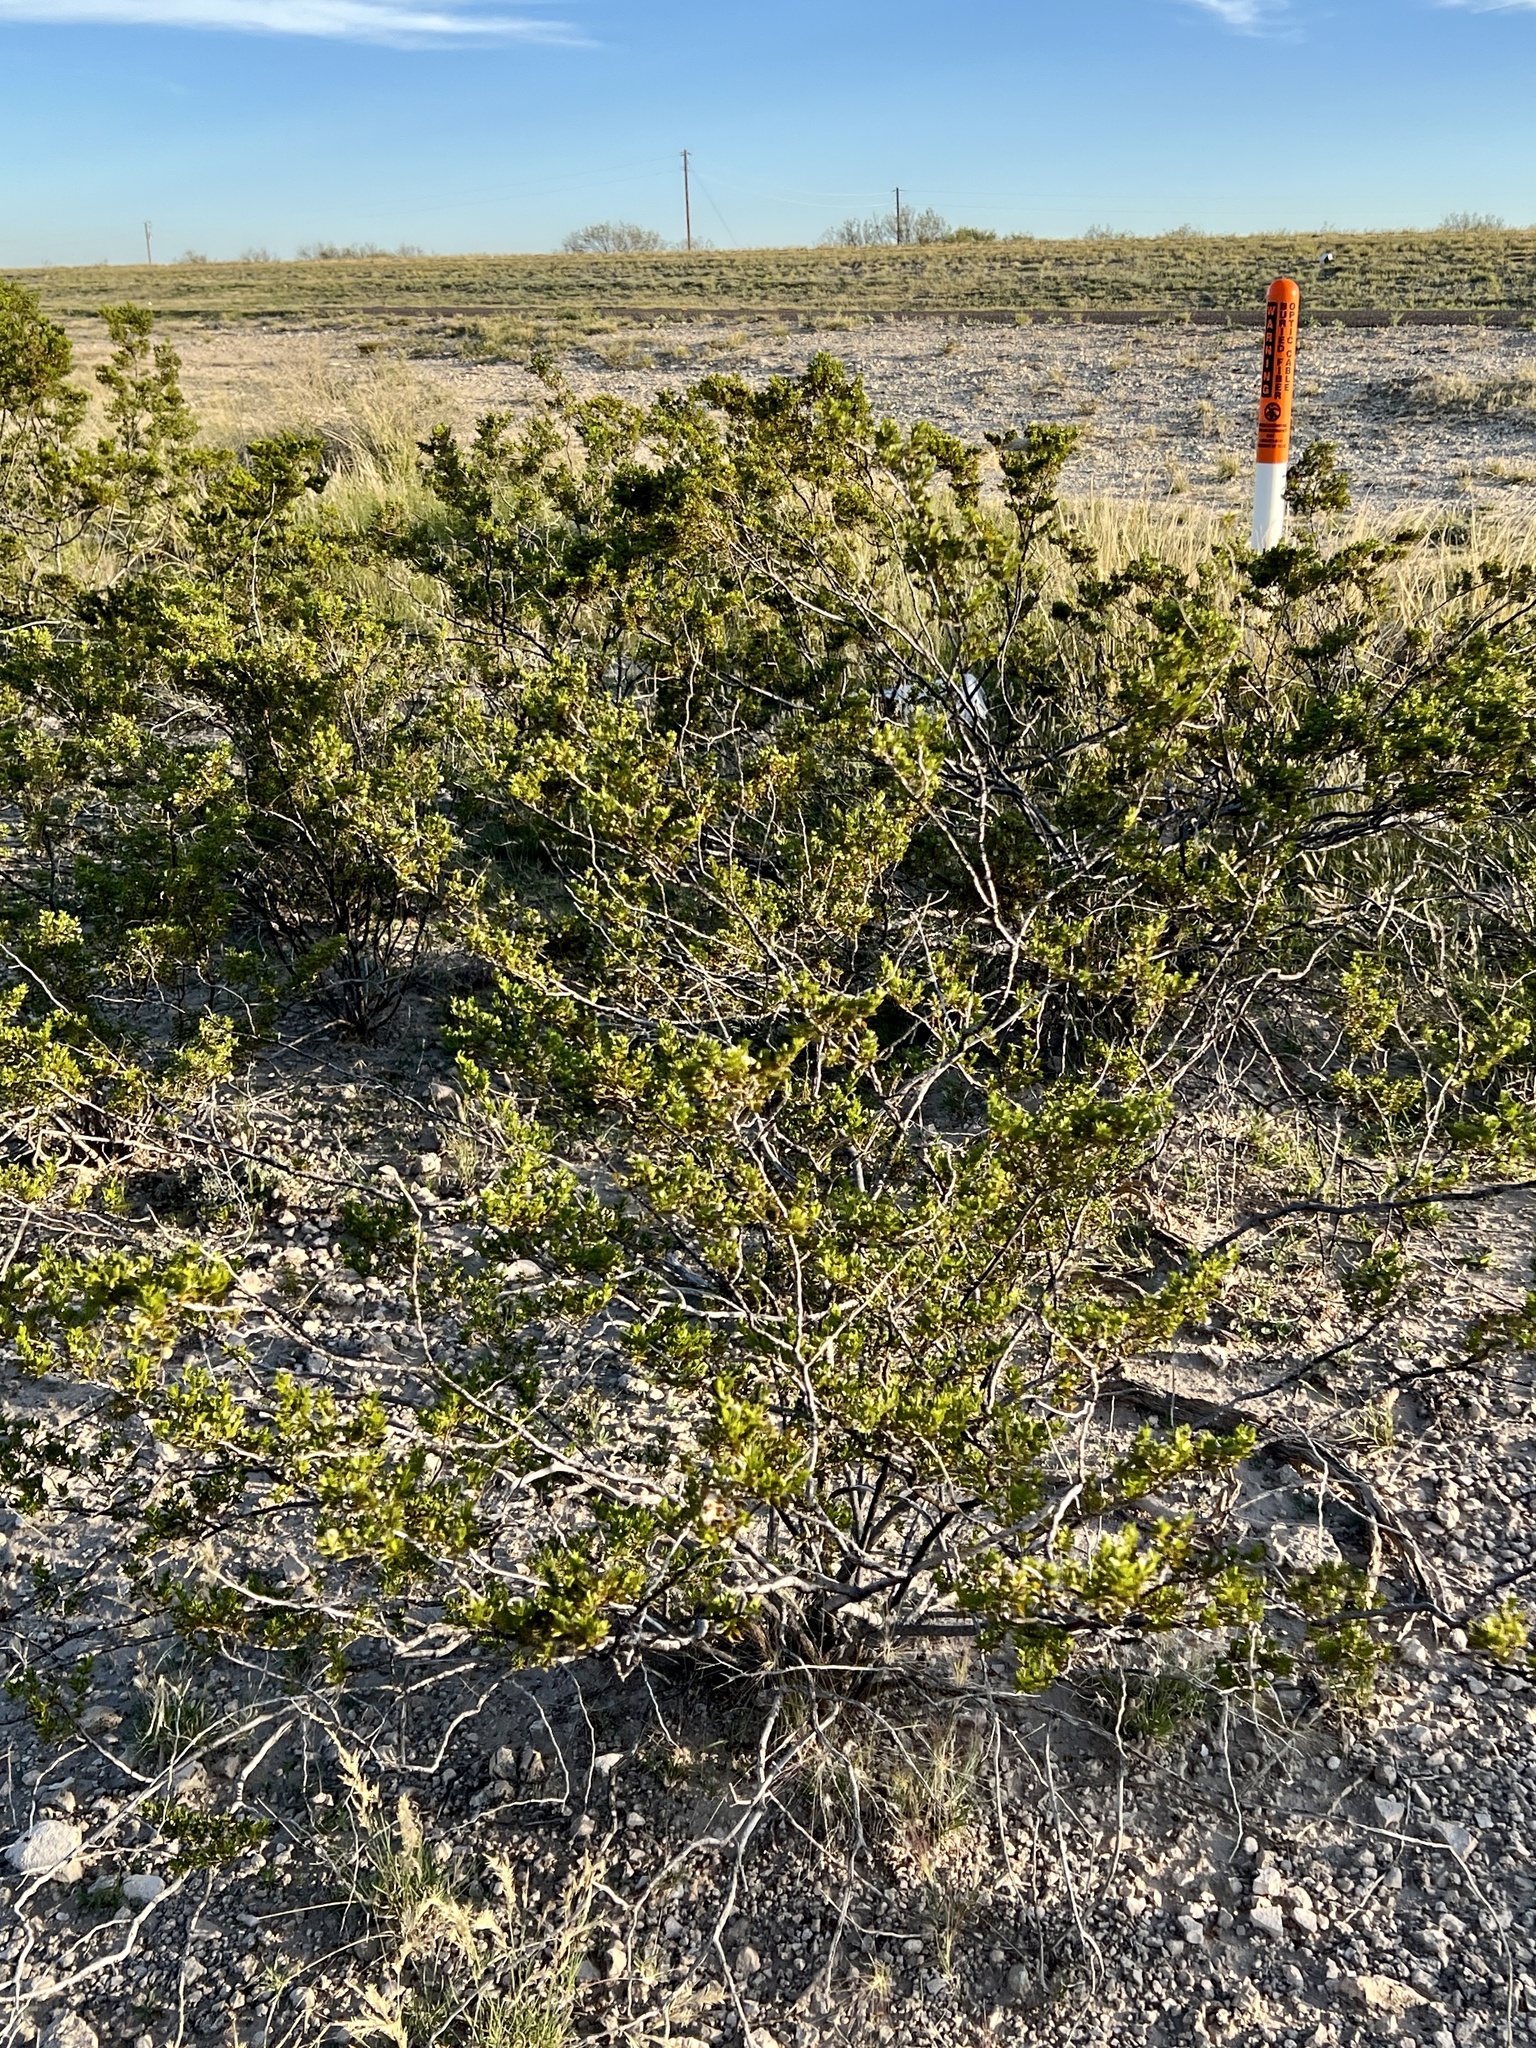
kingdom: Plantae
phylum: Tracheophyta
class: Magnoliopsida
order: Zygophyllales
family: Zygophyllaceae
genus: Larrea
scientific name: Larrea tridentata
